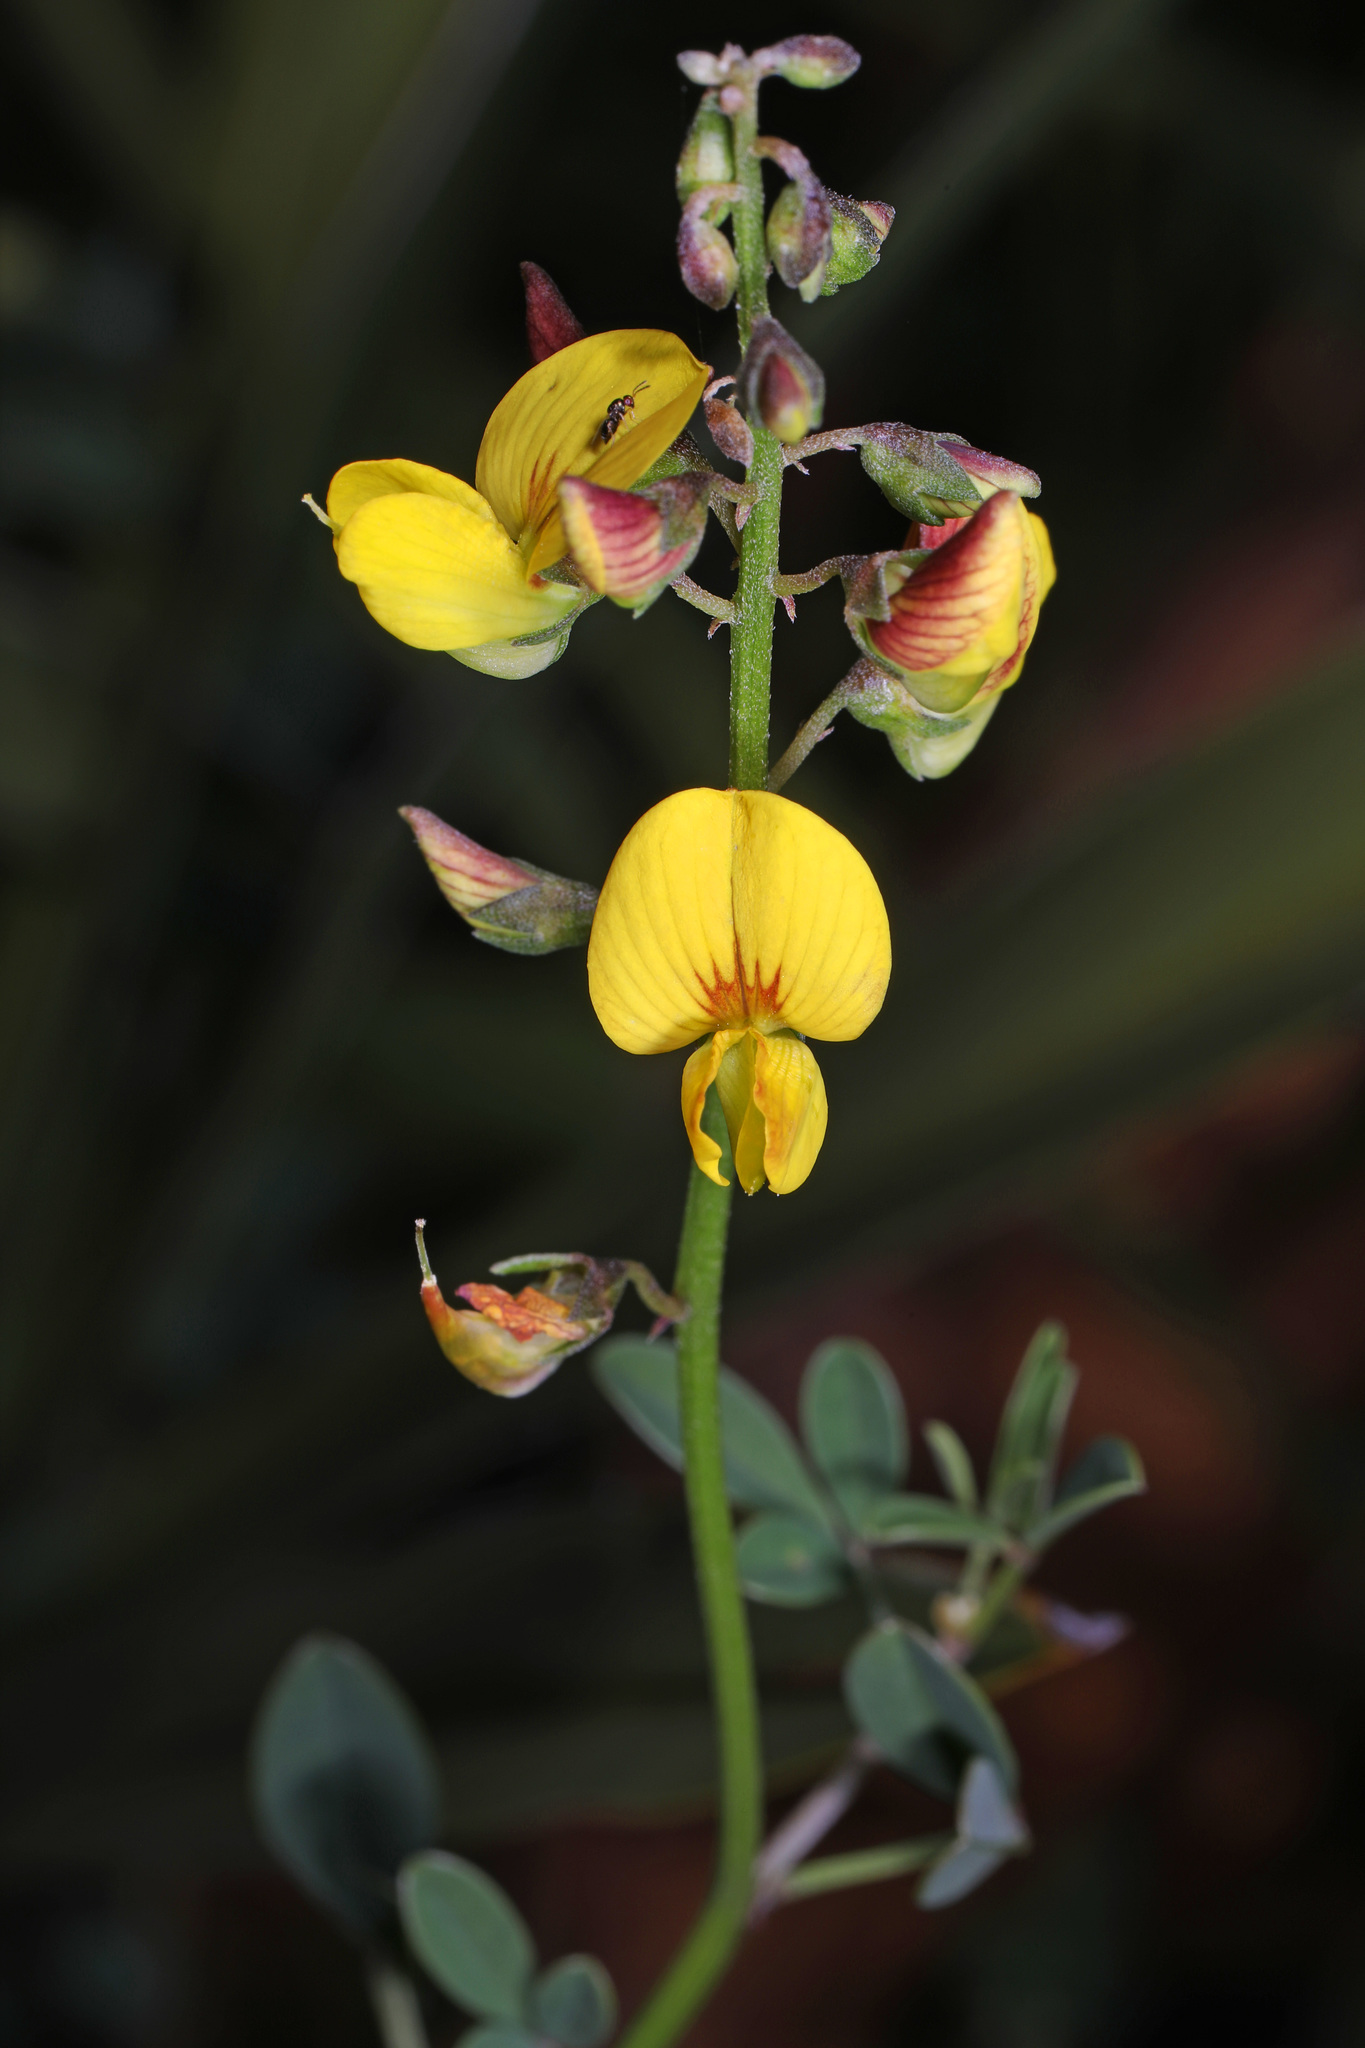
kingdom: Plantae
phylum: Tracheophyta
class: Magnoliopsida
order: Fabales
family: Fabaceae
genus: Crotalaria
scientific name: Crotalaria pumila
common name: Low rattlebox
